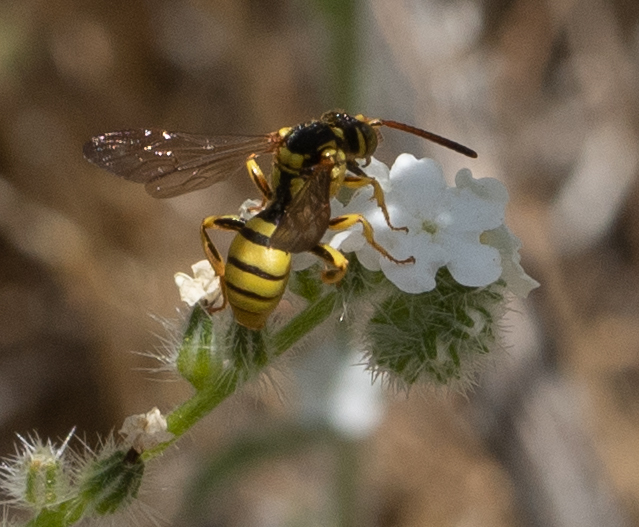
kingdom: Animalia
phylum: Arthropoda
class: Insecta
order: Hymenoptera
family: Apidae
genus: Nomada
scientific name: Nomada
